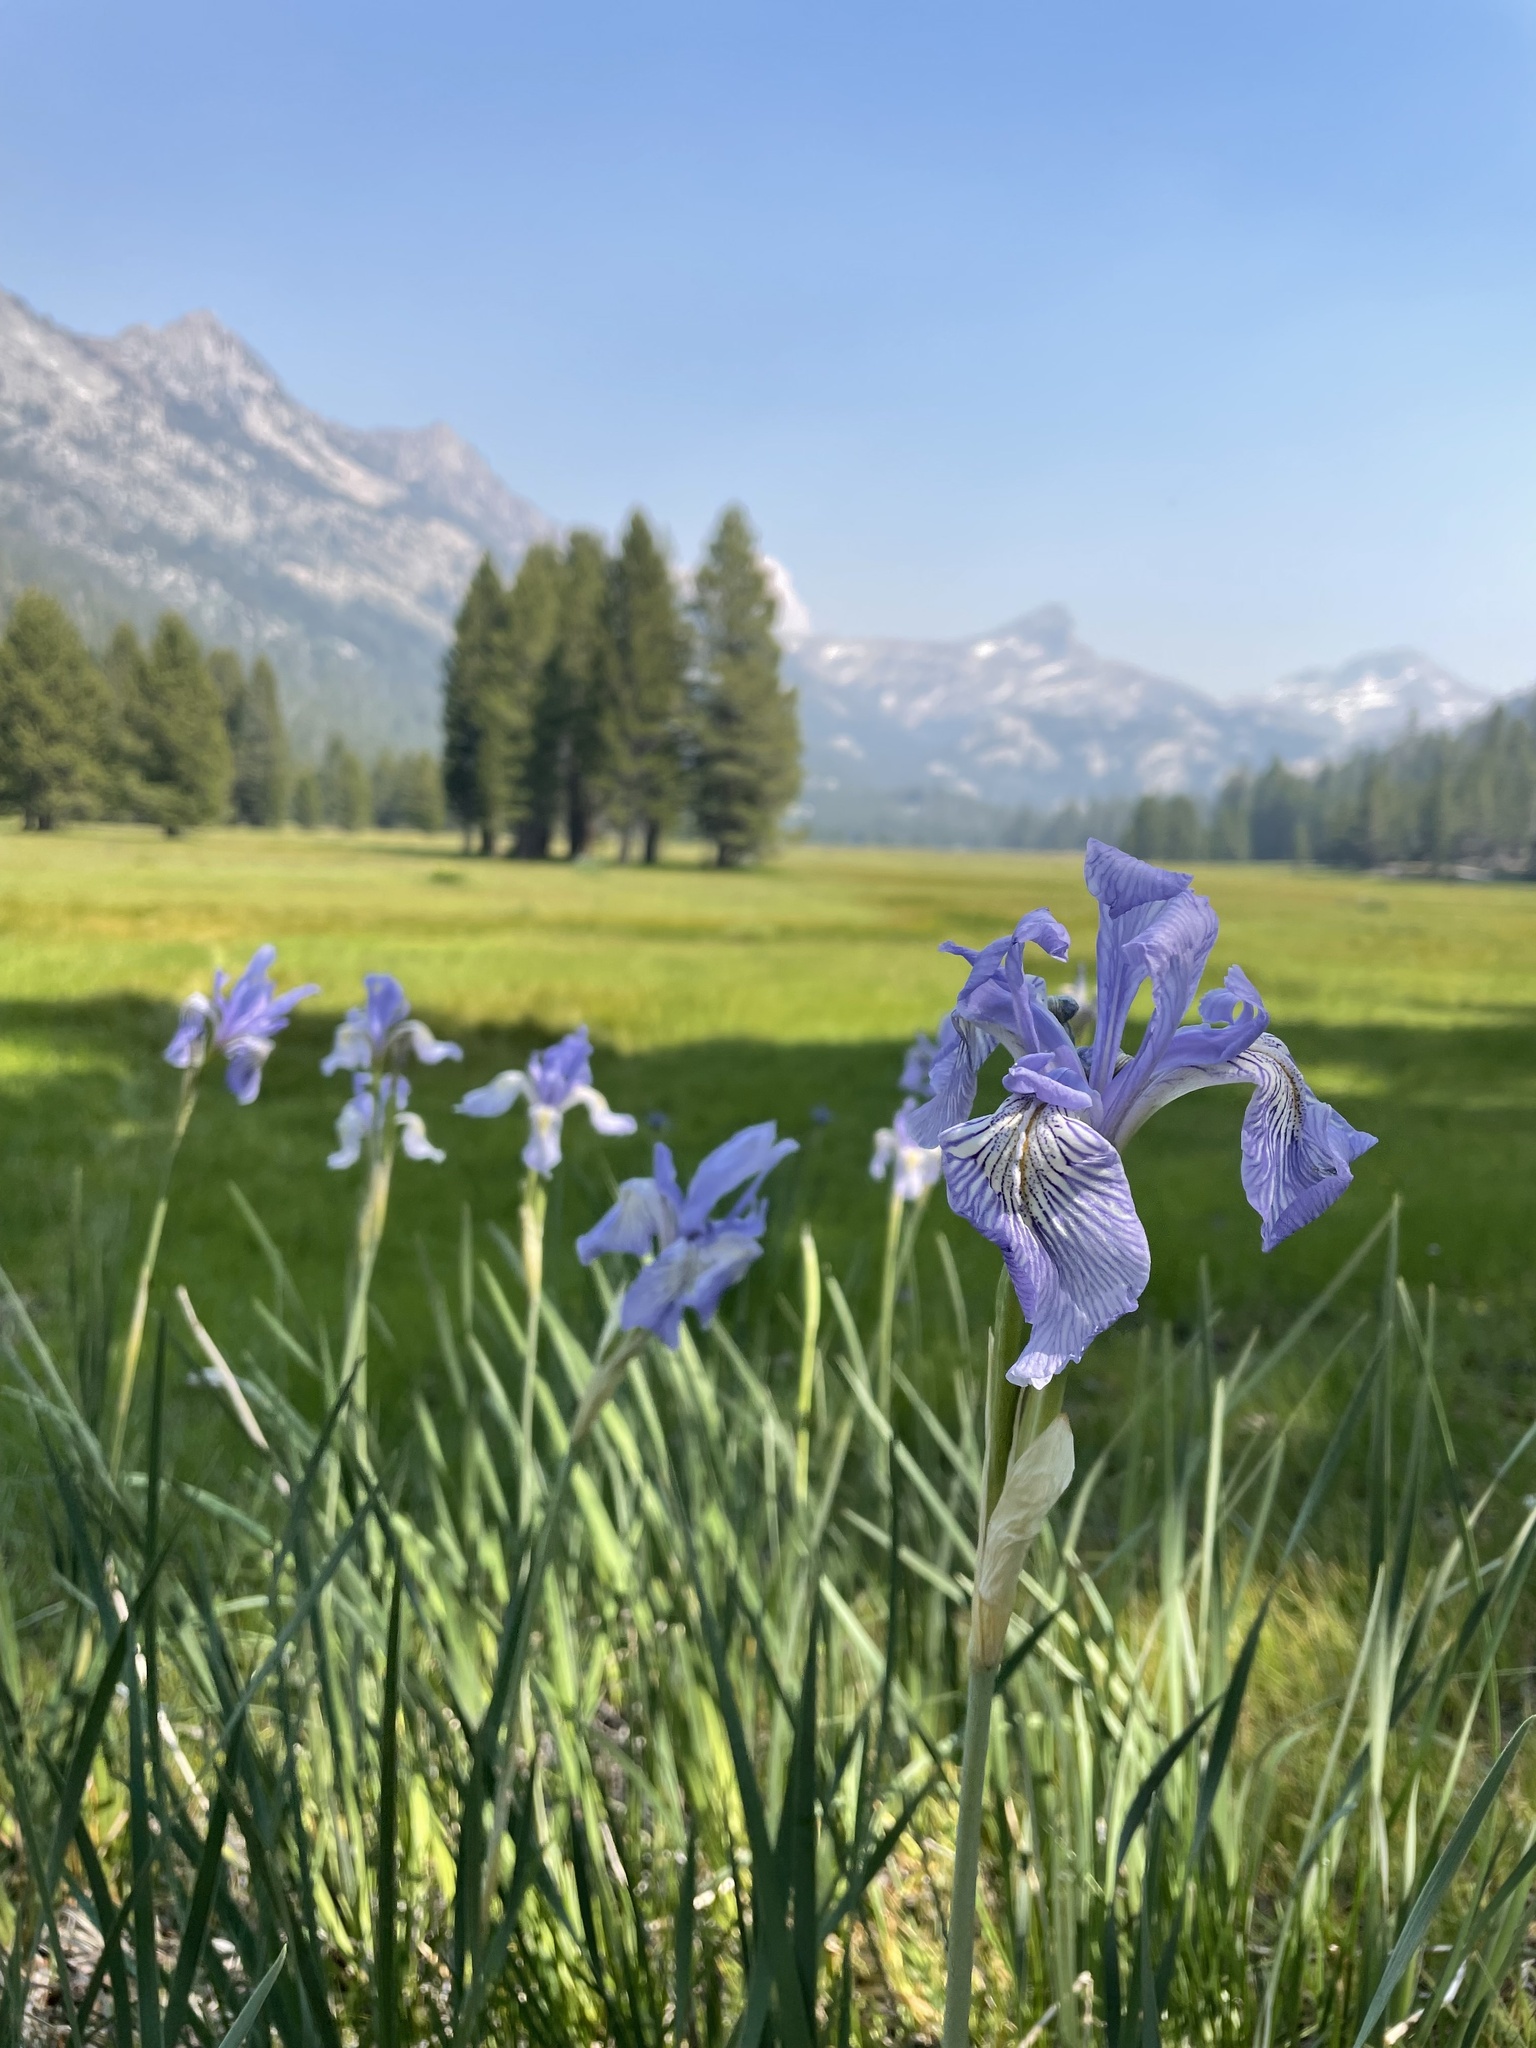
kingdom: Plantae
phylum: Tracheophyta
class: Liliopsida
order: Asparagales
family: Iridaceae
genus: Iris
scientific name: Iris missouriensis
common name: Rocky mountain iris
